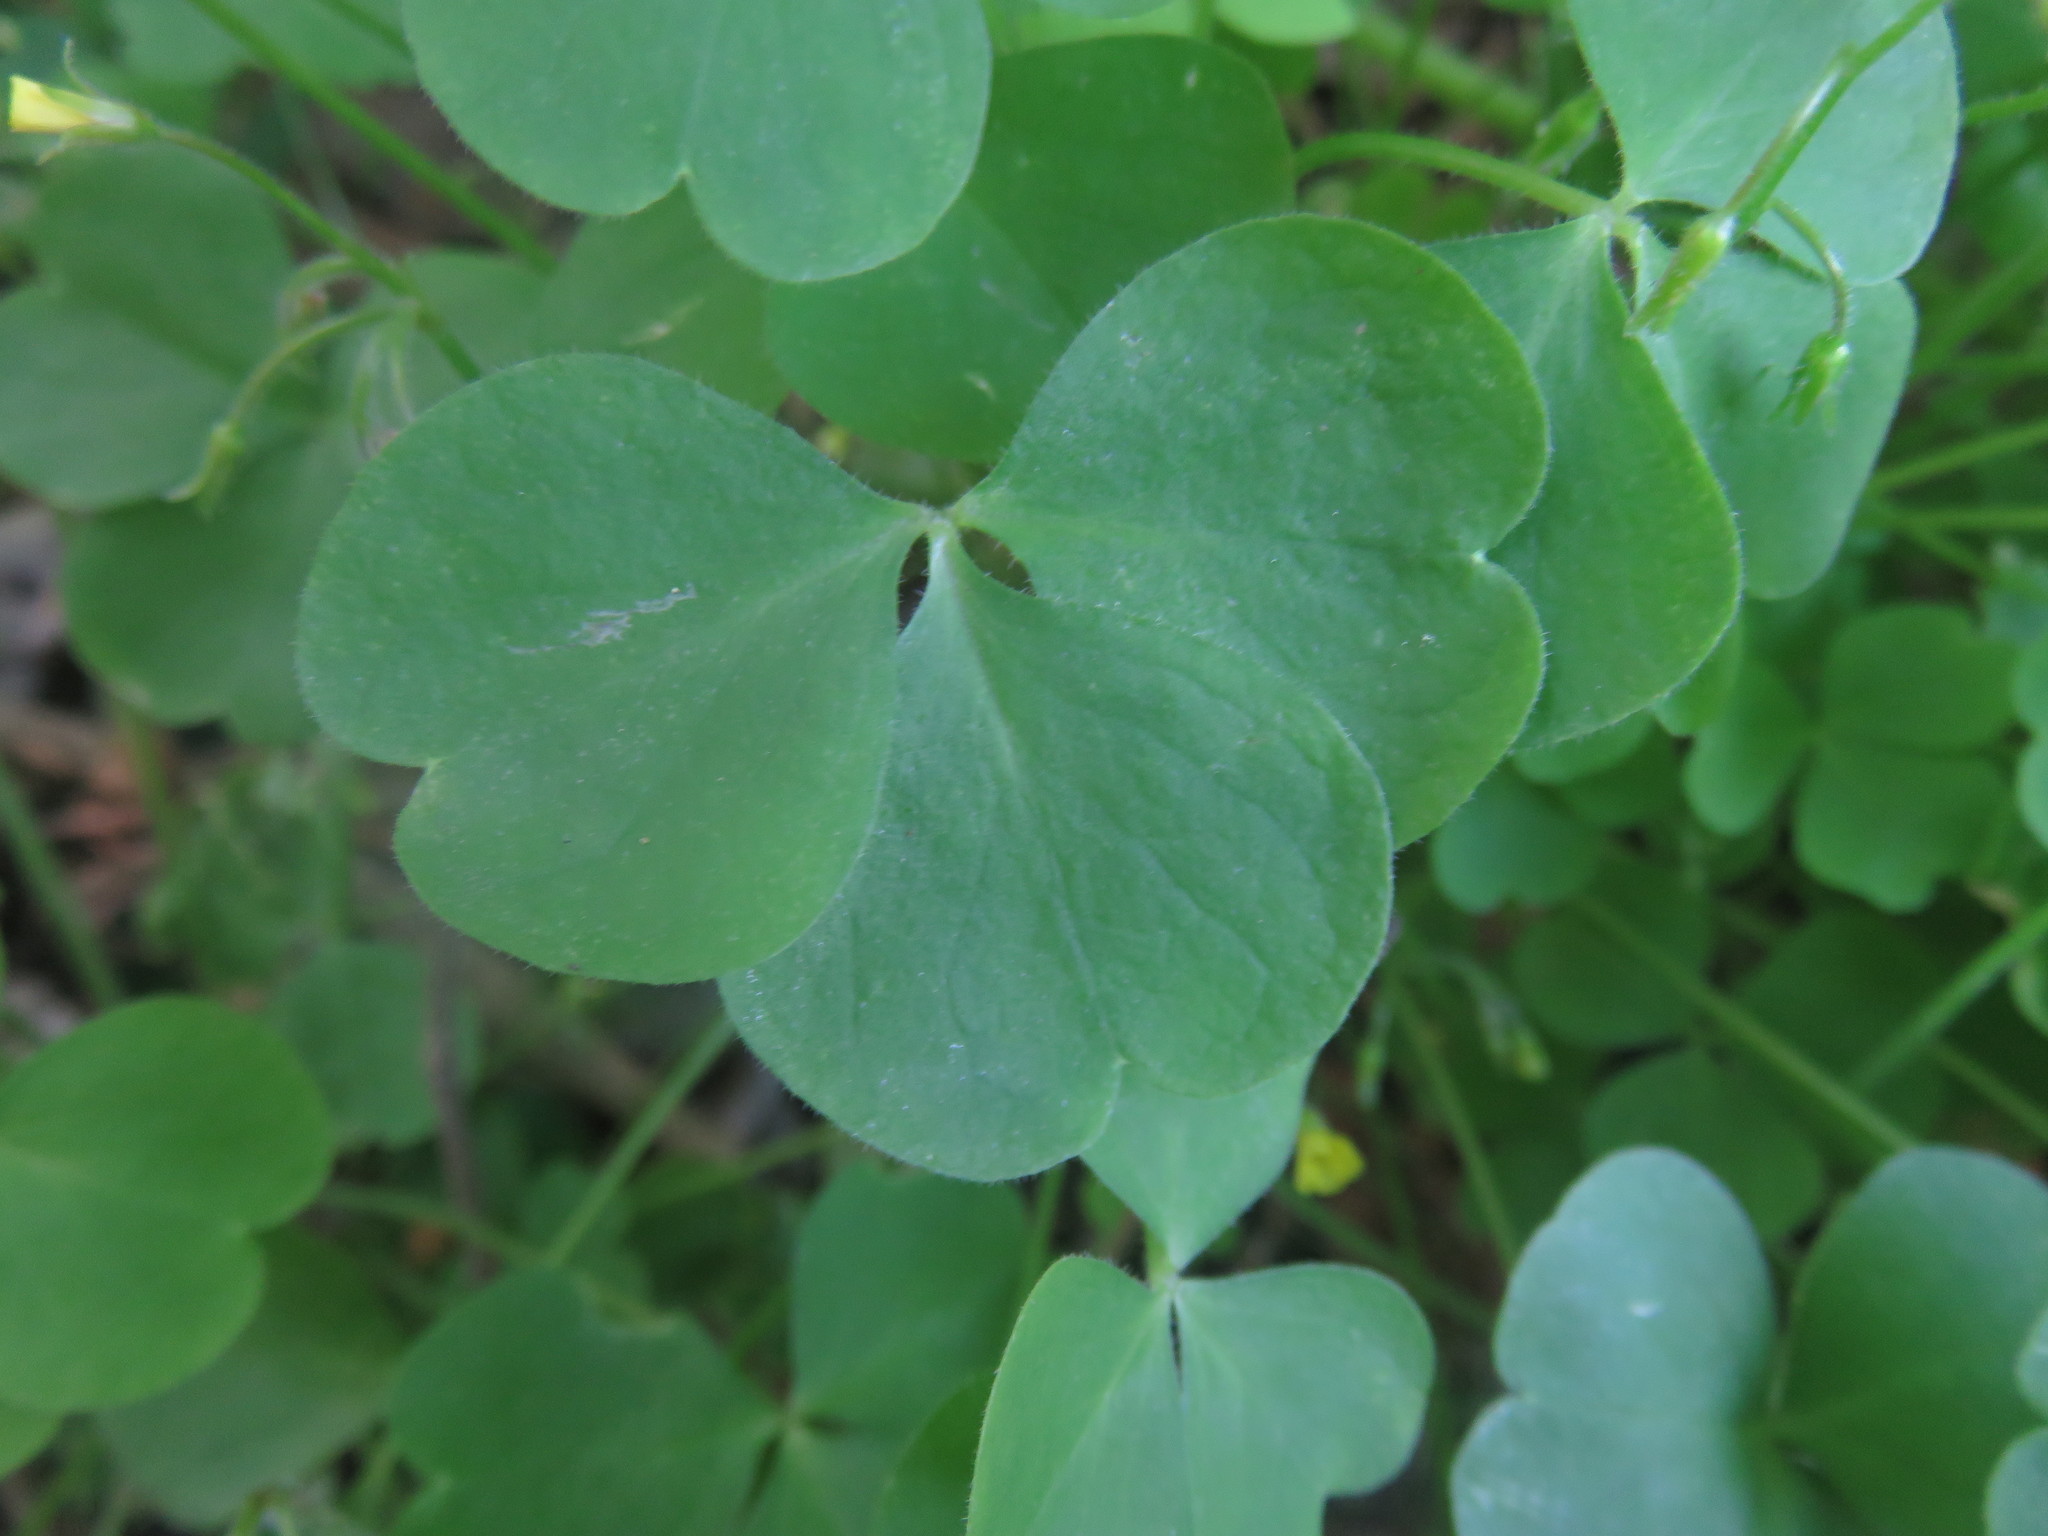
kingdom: Plantae
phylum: Tracheophyta
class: Magnoliopsida
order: Oxalidales
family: Oxalidaceae
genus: Oxalis
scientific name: Oxalis laxa
